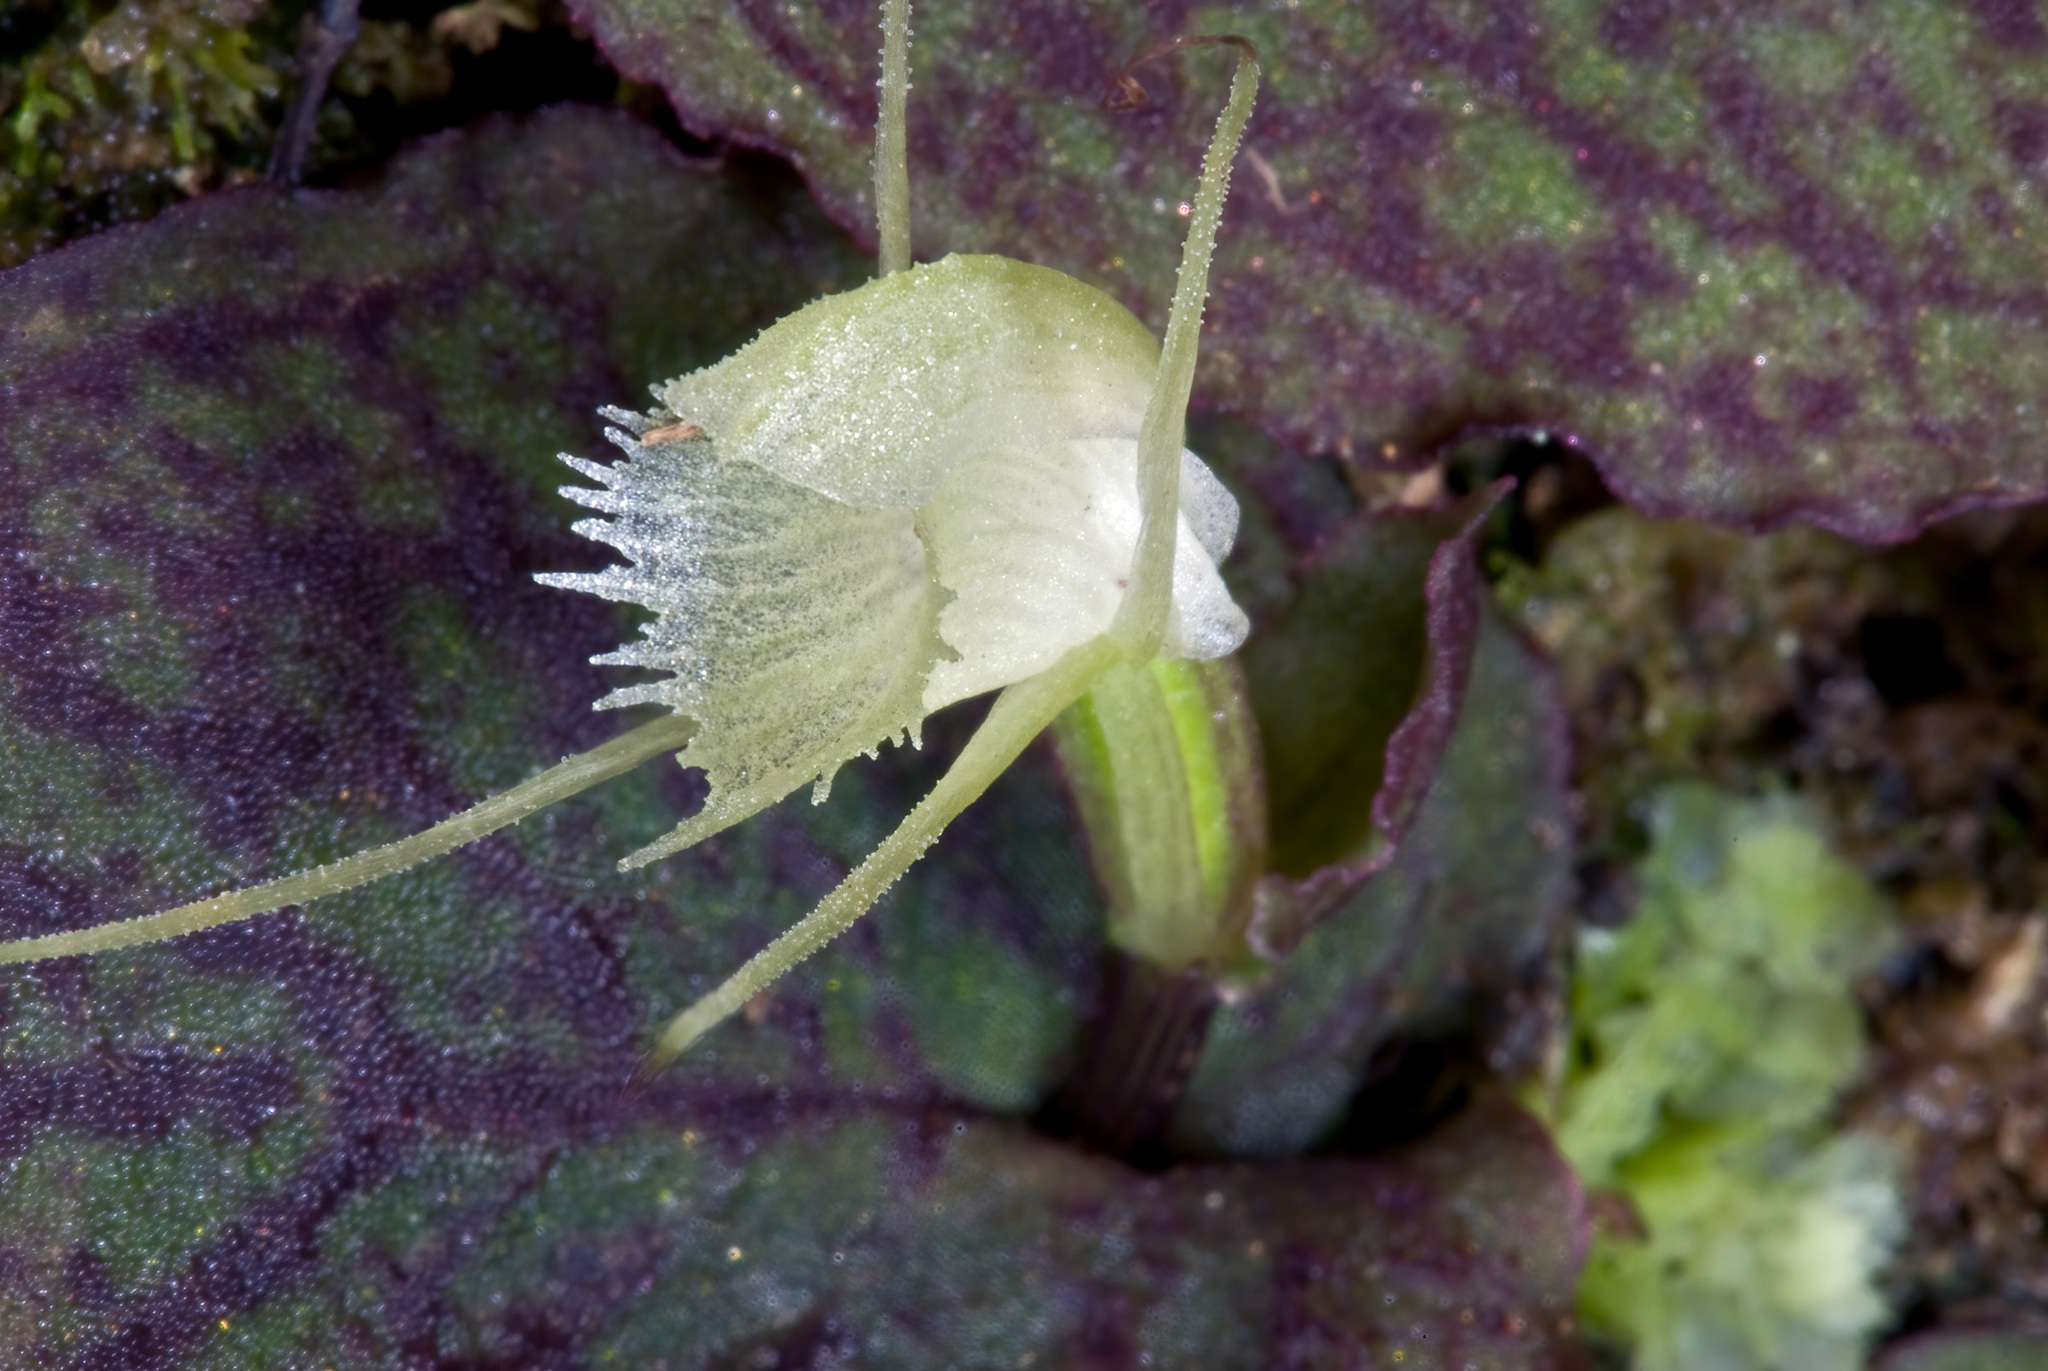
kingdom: Plantae
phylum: Tracheophyta
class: Liliopsida
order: Asparagales
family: Orchidaceae
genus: Corybas
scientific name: Corybas oblongus
